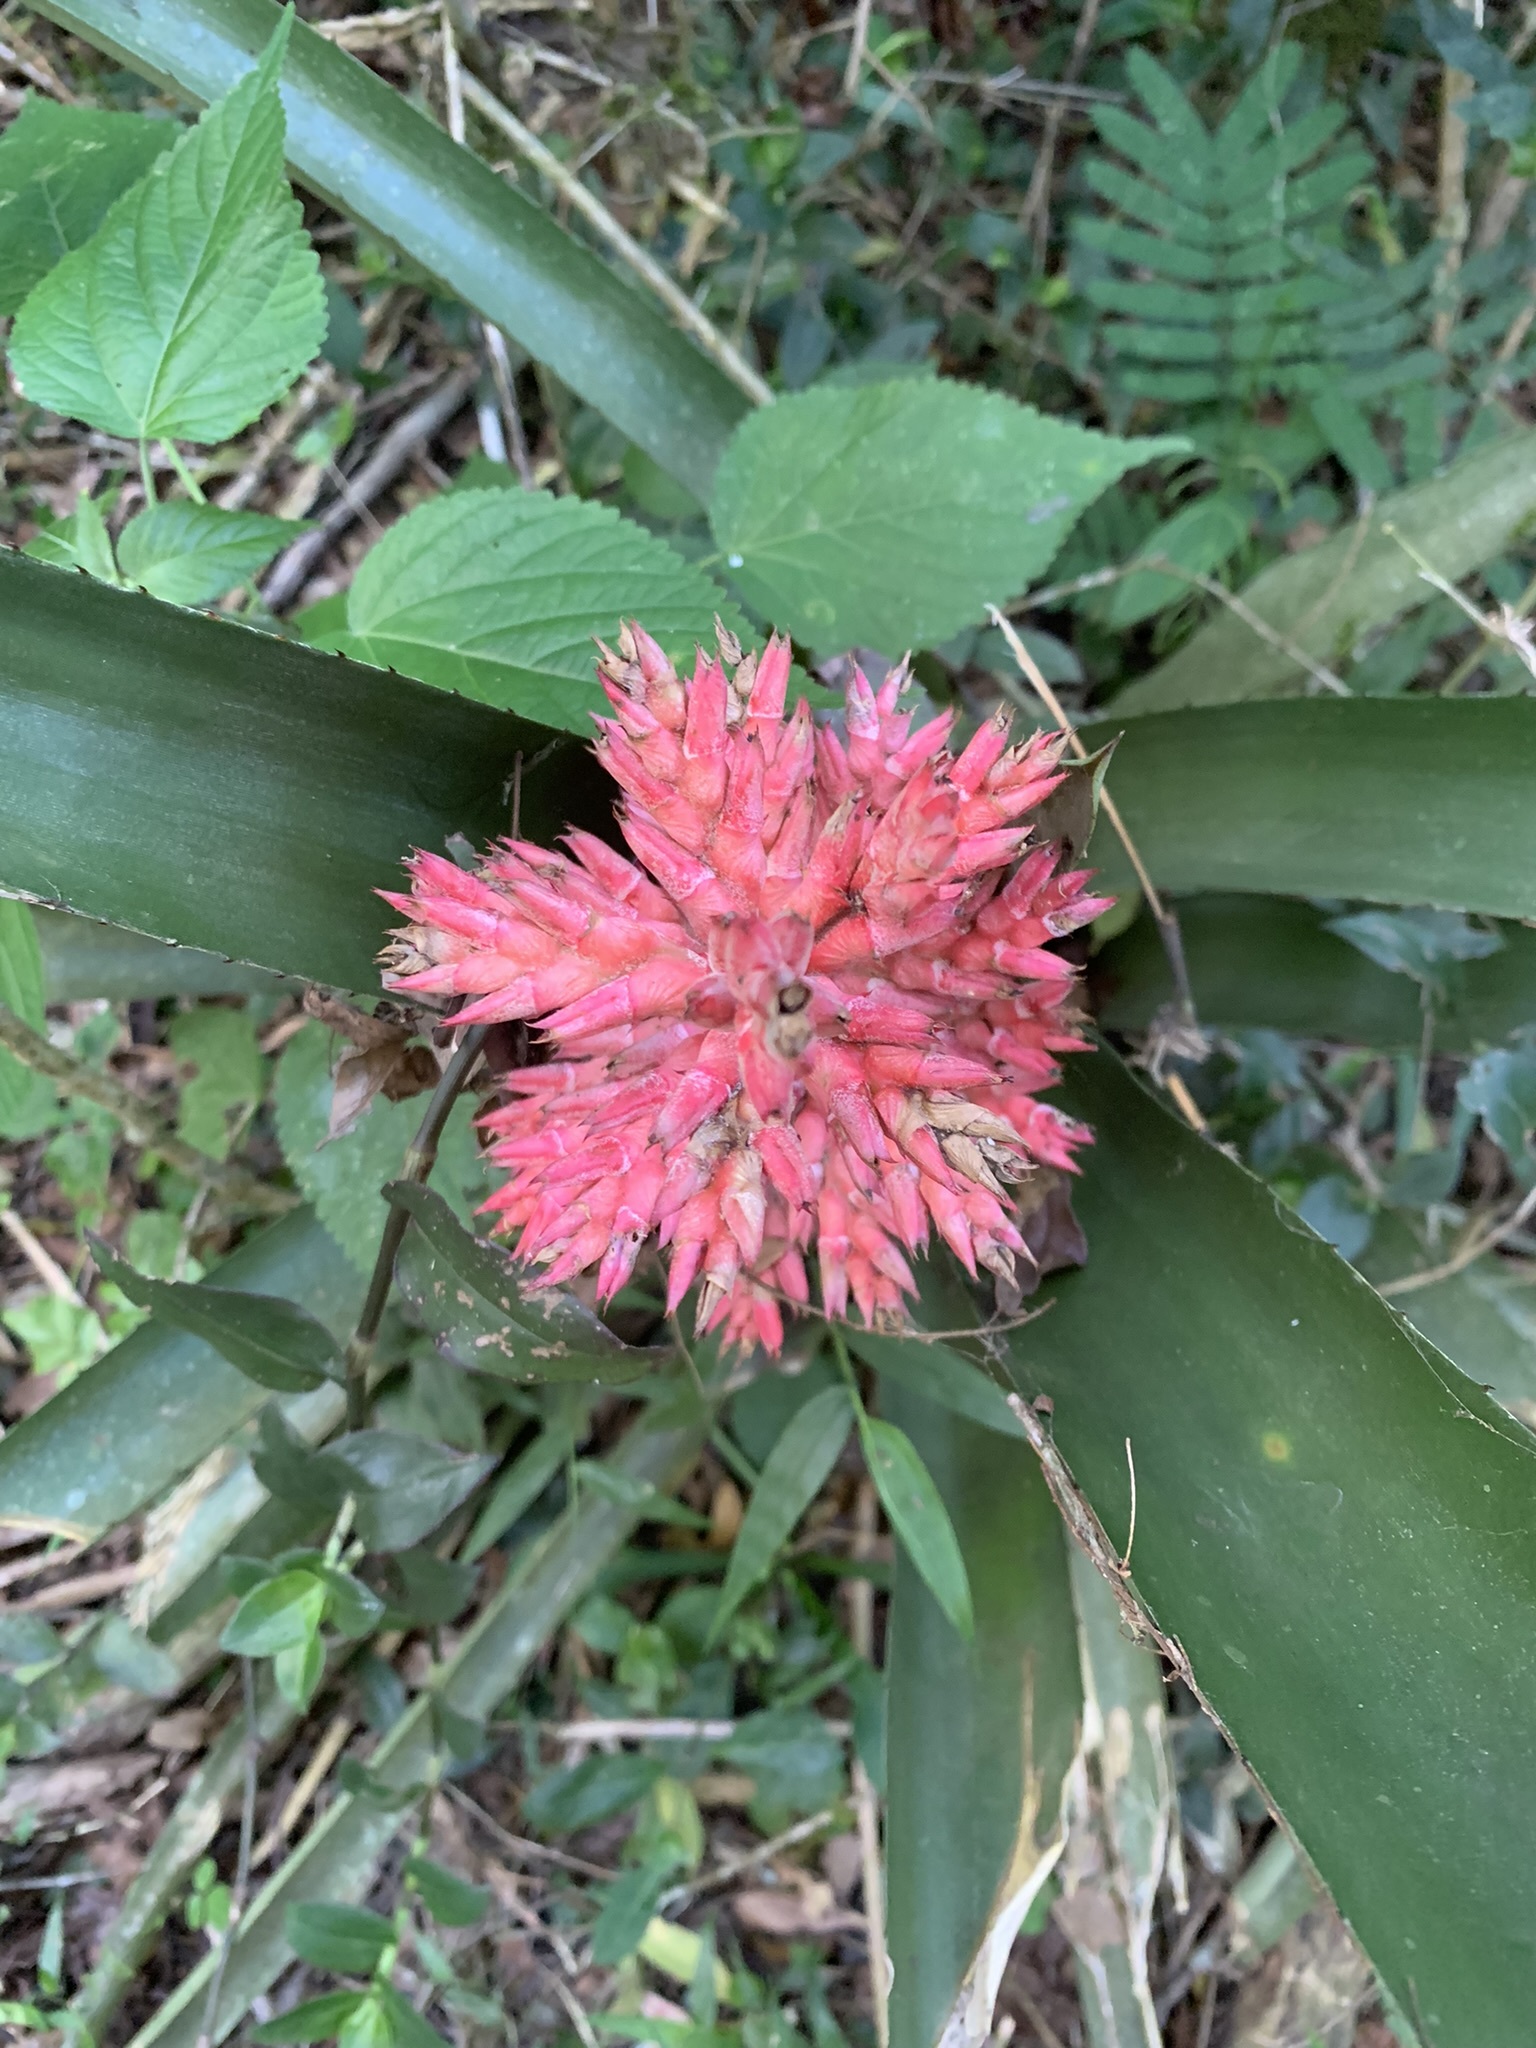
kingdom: Plantae
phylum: Tracheophyta
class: Liliopsida
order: Poales
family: Bromeliaceae
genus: Aechmea
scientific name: Aechmea distichantha
